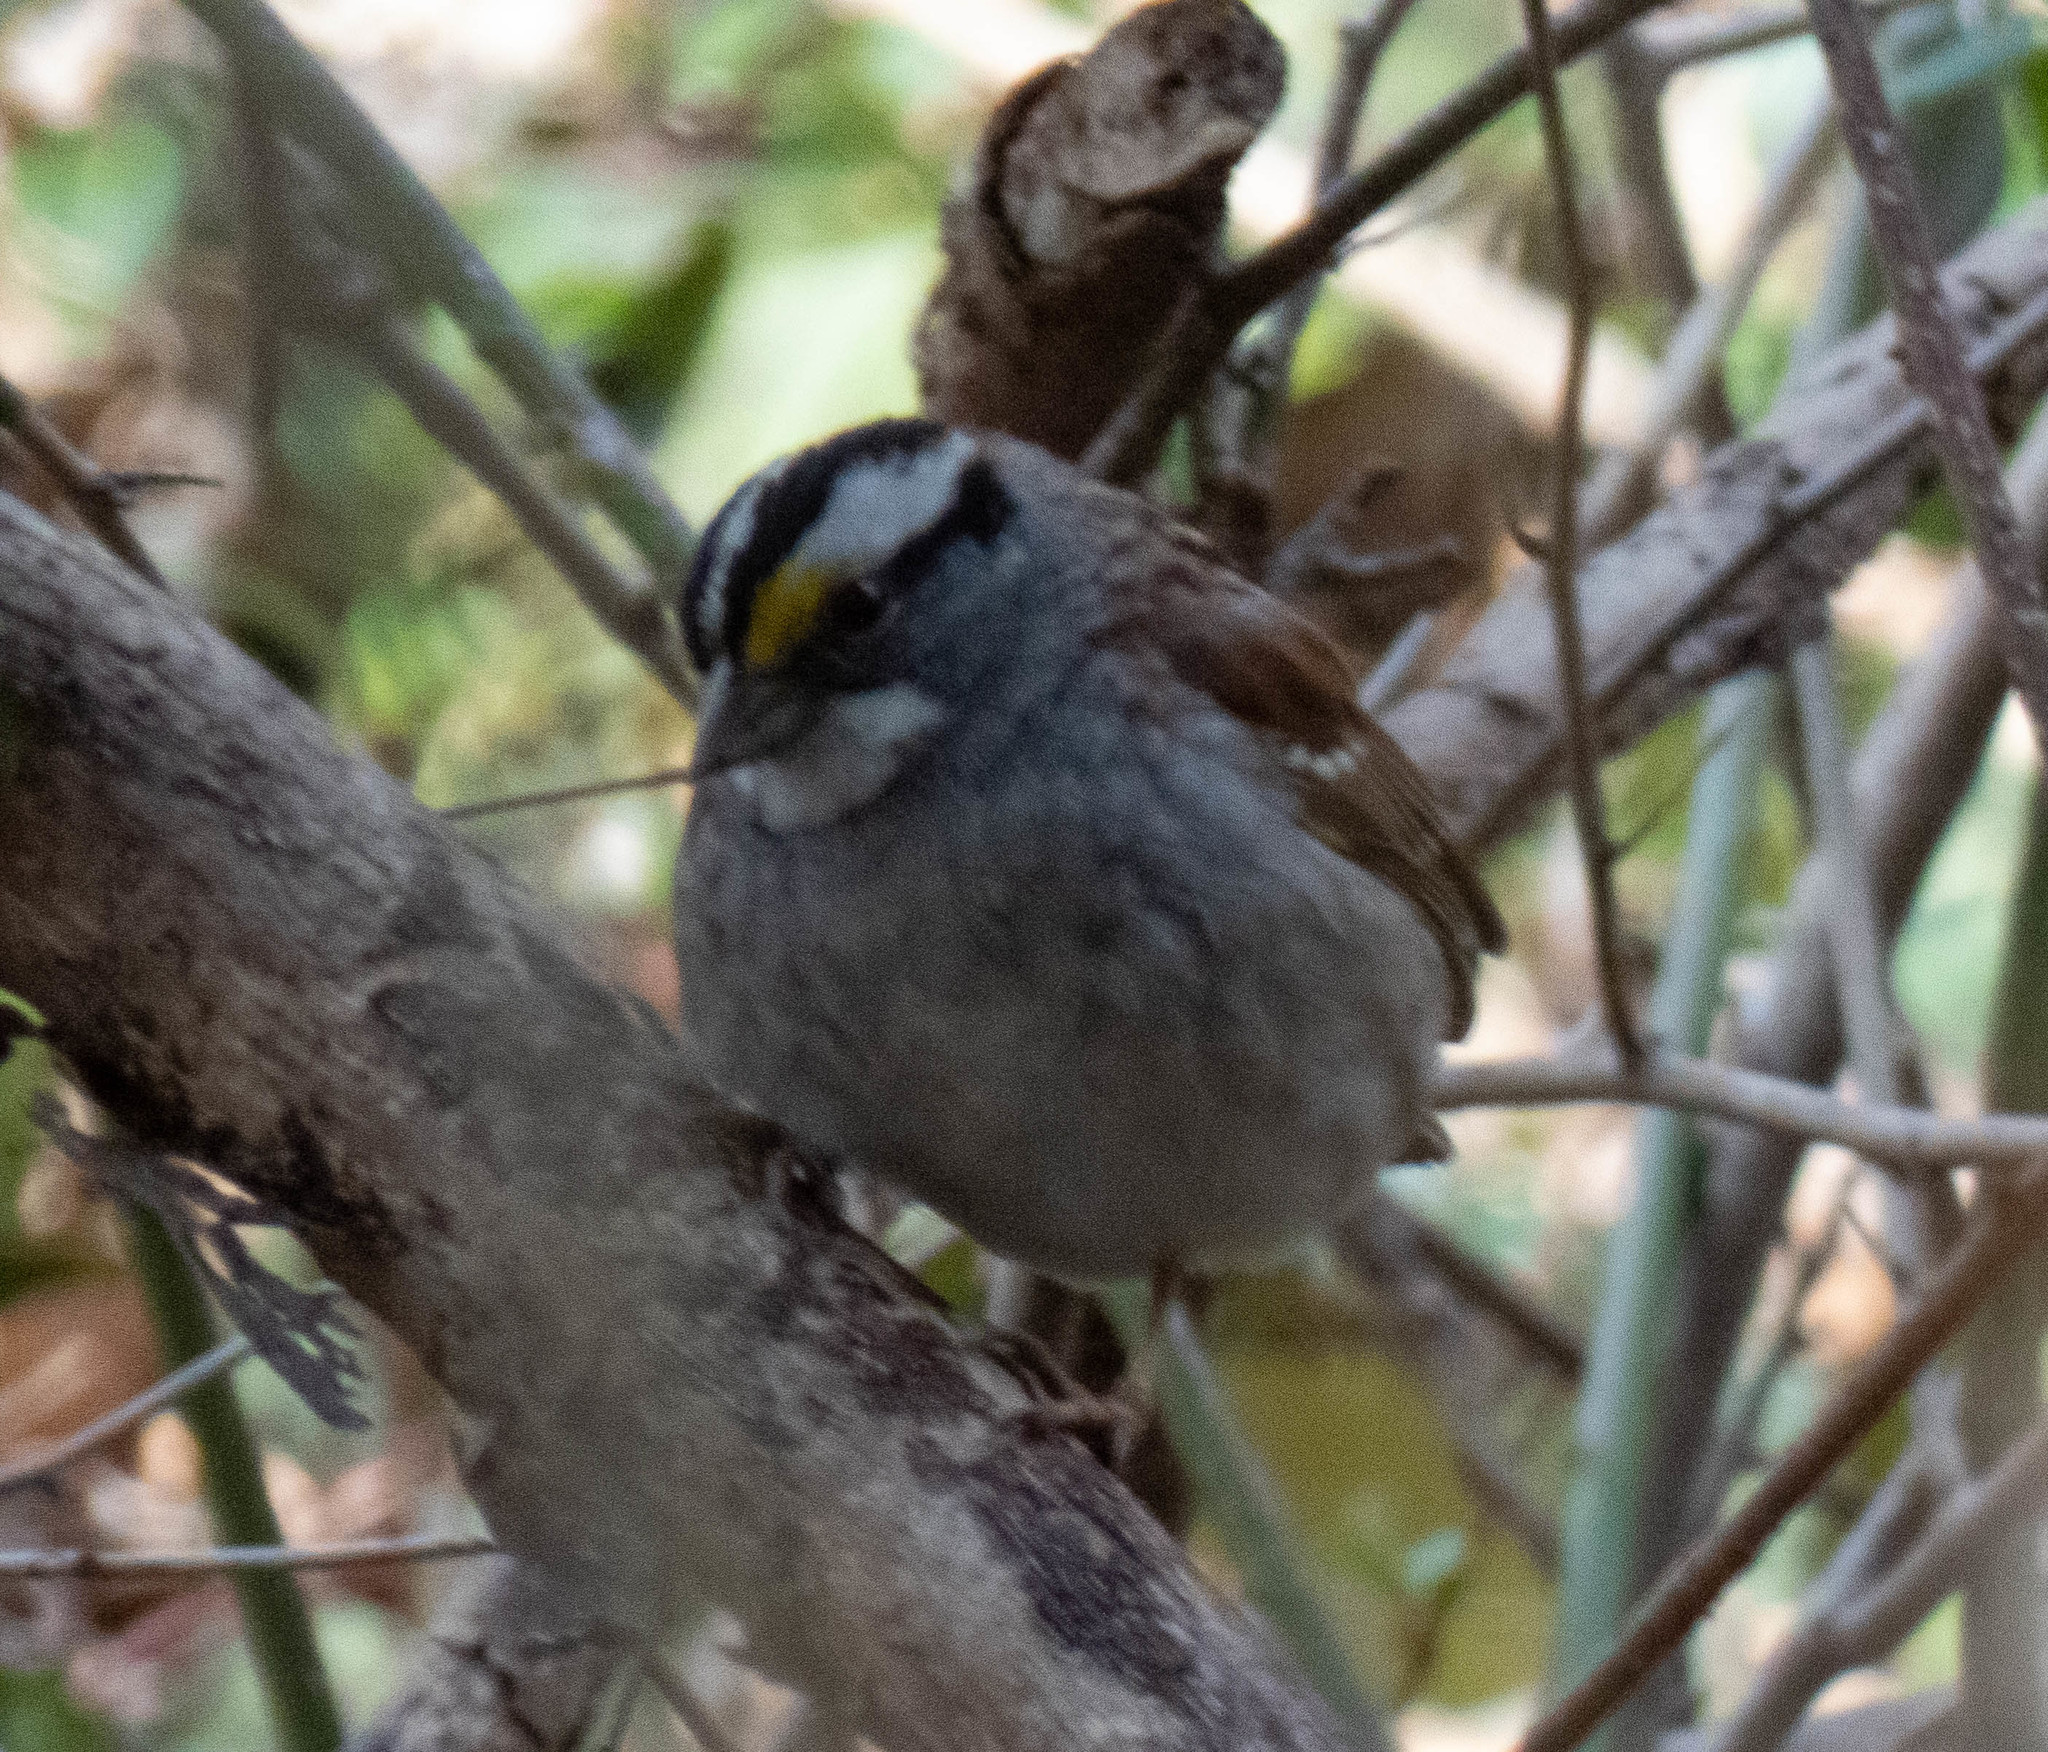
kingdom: Animalia
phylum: Chordata
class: Aves
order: Passeriformes
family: Passerellidae
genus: Zonotrichia
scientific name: Zonotrichia albicollis
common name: White-throated sparrow
